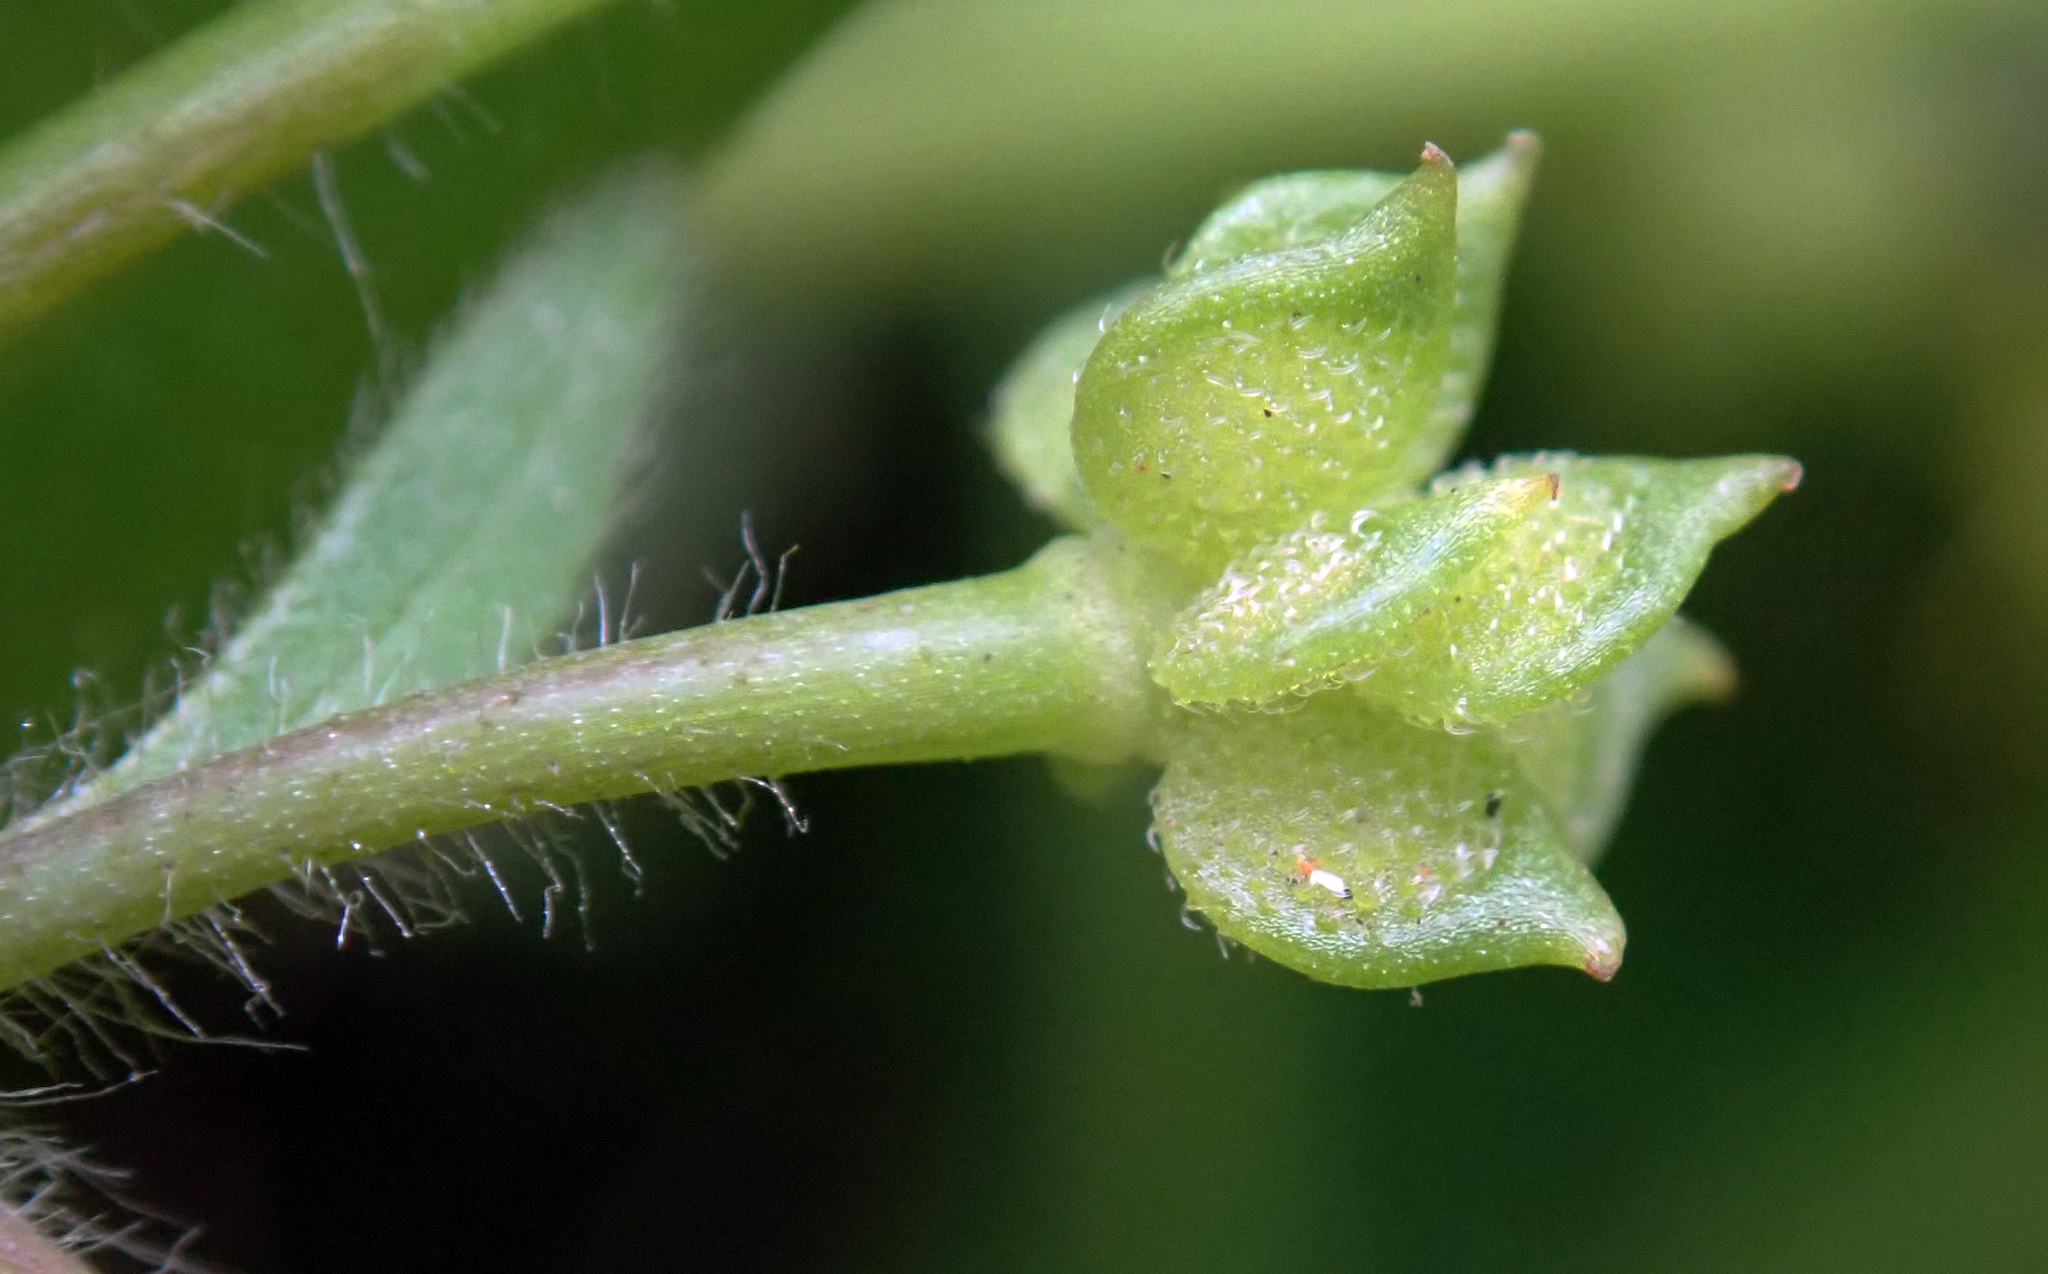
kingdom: Plantae
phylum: Tracheophyta
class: Magnoliopsida
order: Ranunculales
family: Ranunculaceae
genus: Ranunculus
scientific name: Ranunculus parviflorus
